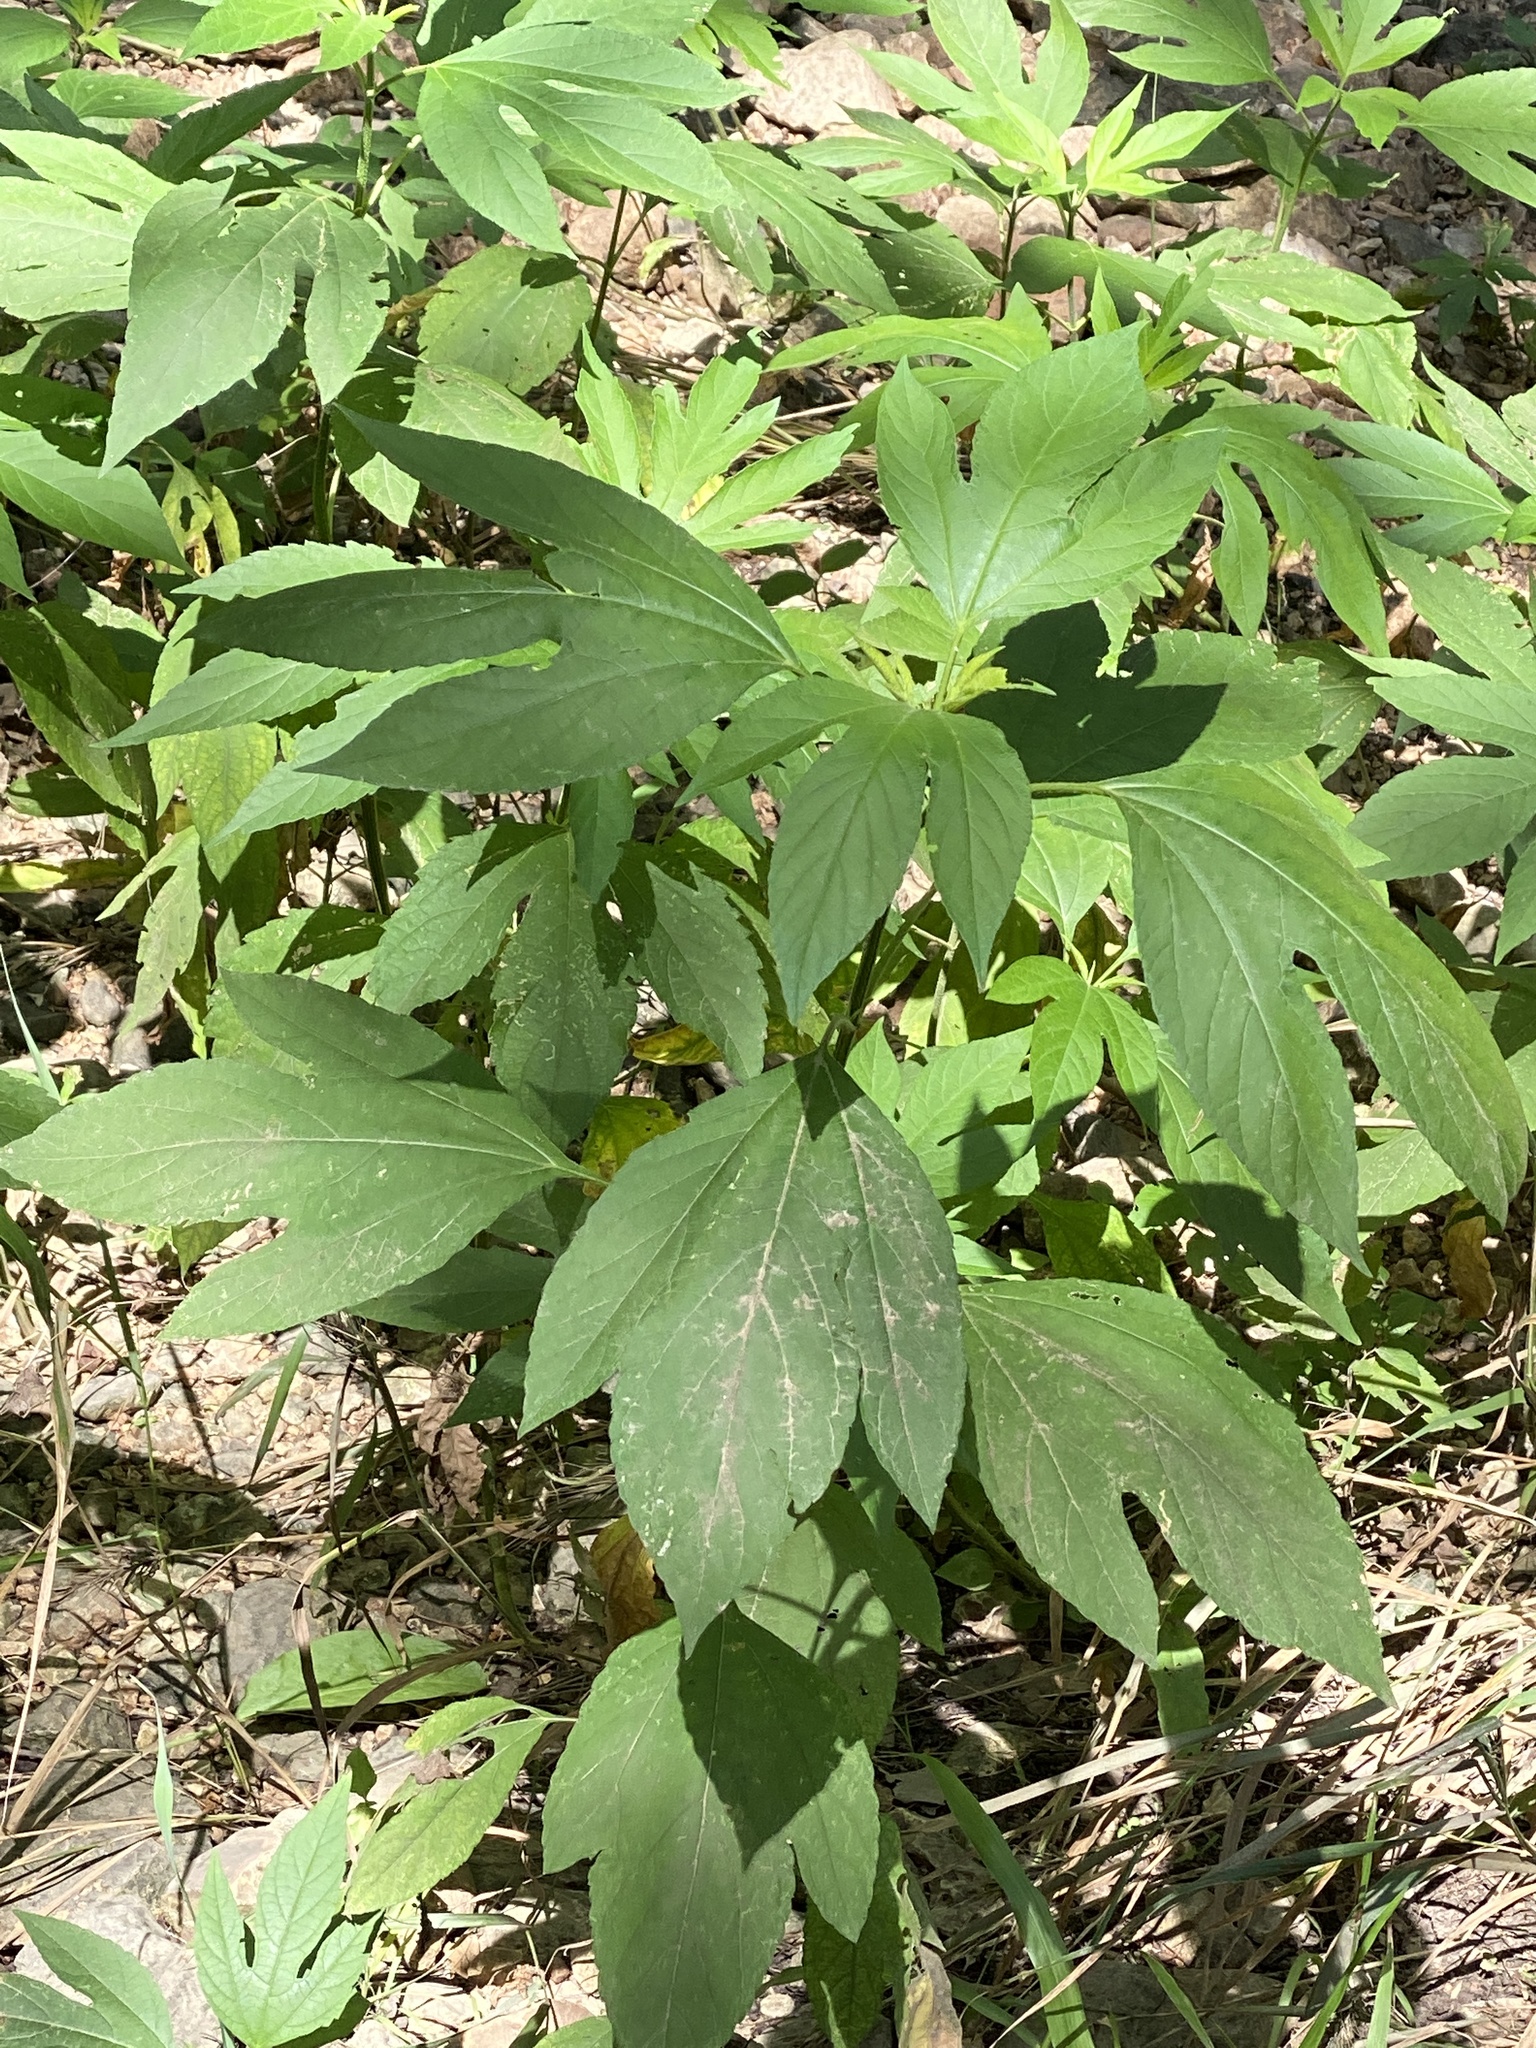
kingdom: Plantae
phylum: Tracheophyta
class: Magnoliopsida
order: Asterales
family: Asteraceae
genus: Ambrosia
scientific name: Ambrosia trifida
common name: Giant ragweed
